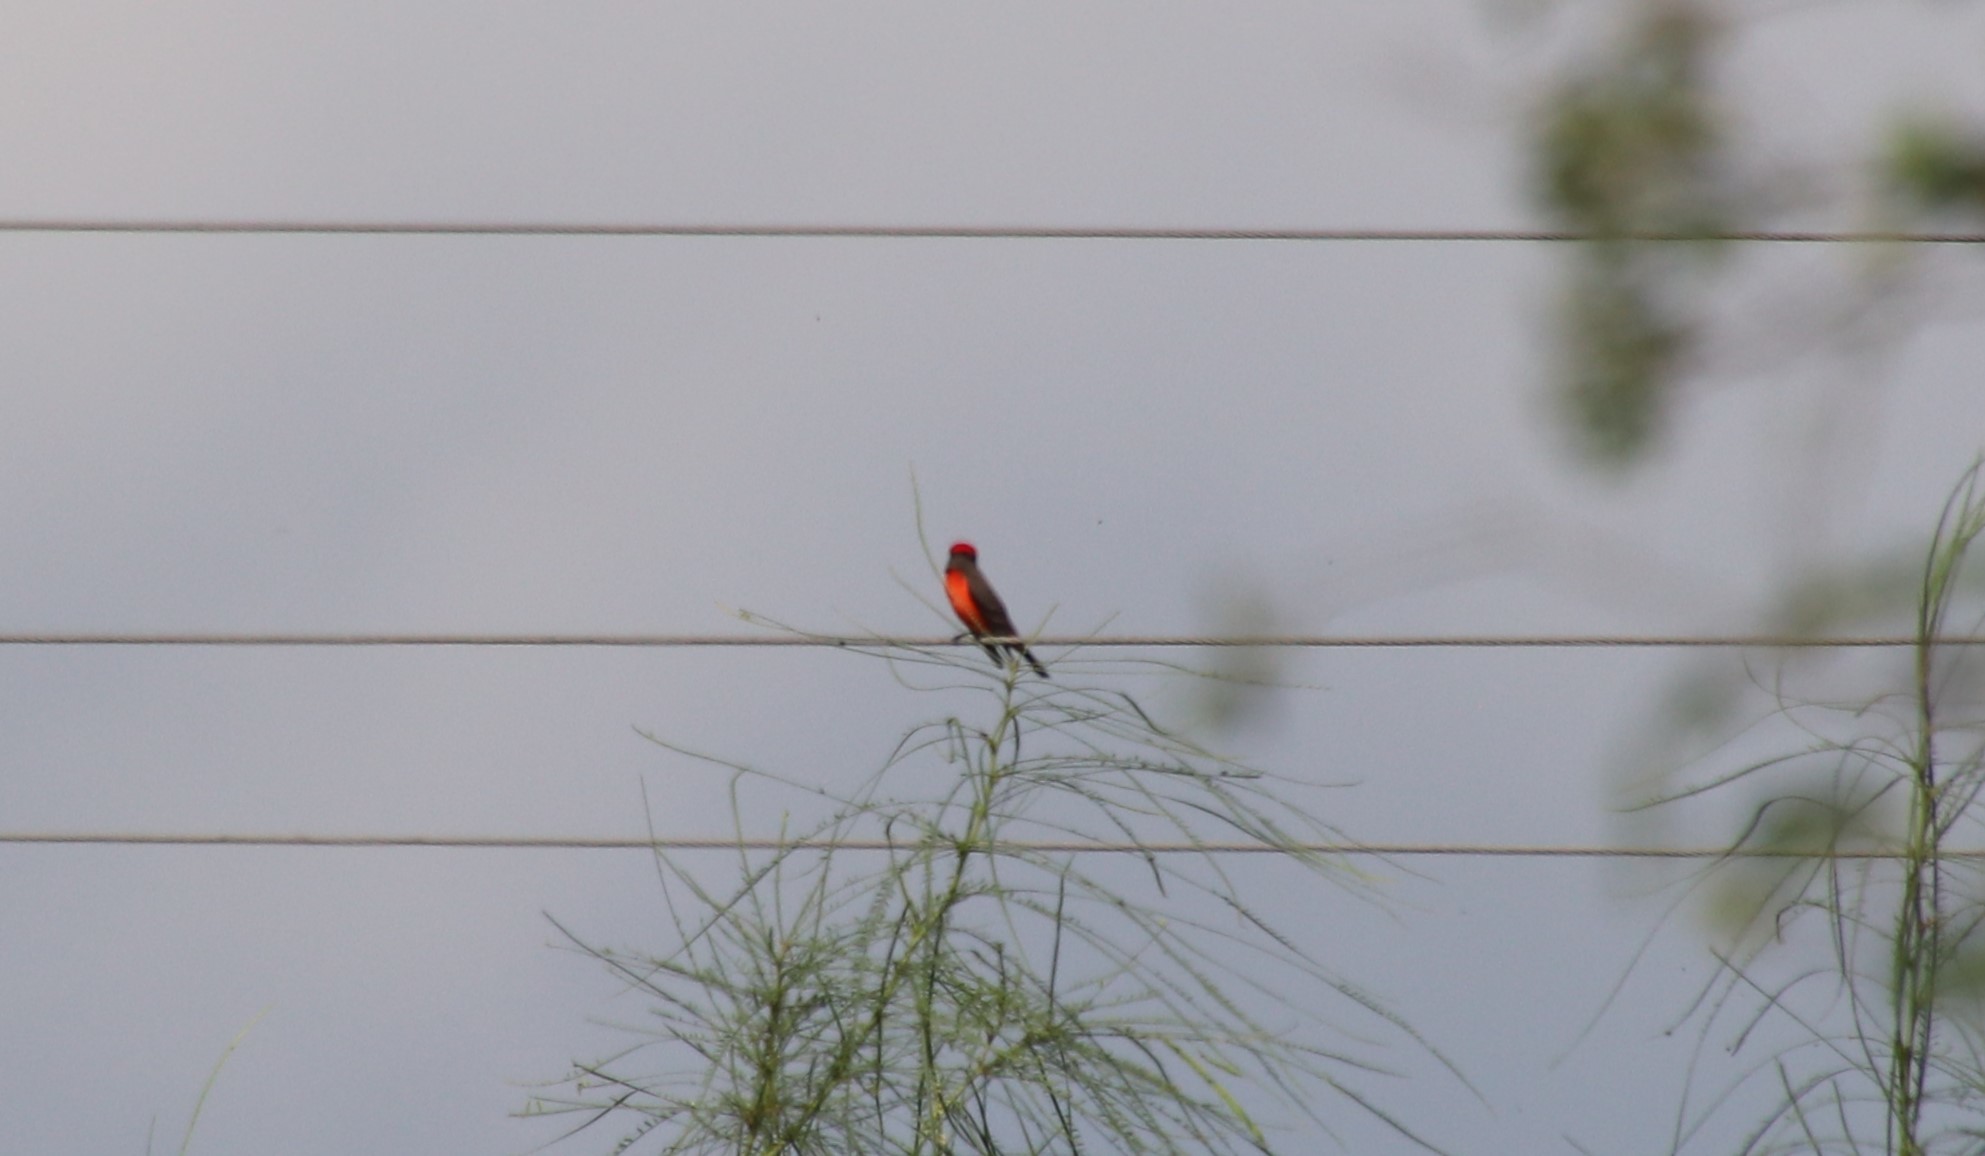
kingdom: Animalia
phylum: Chordata
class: Aves
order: Passeriformes
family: Tyrannidae
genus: Pyrocephalus
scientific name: Pyrocephalus rubinus
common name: Vermilion flycatcher
